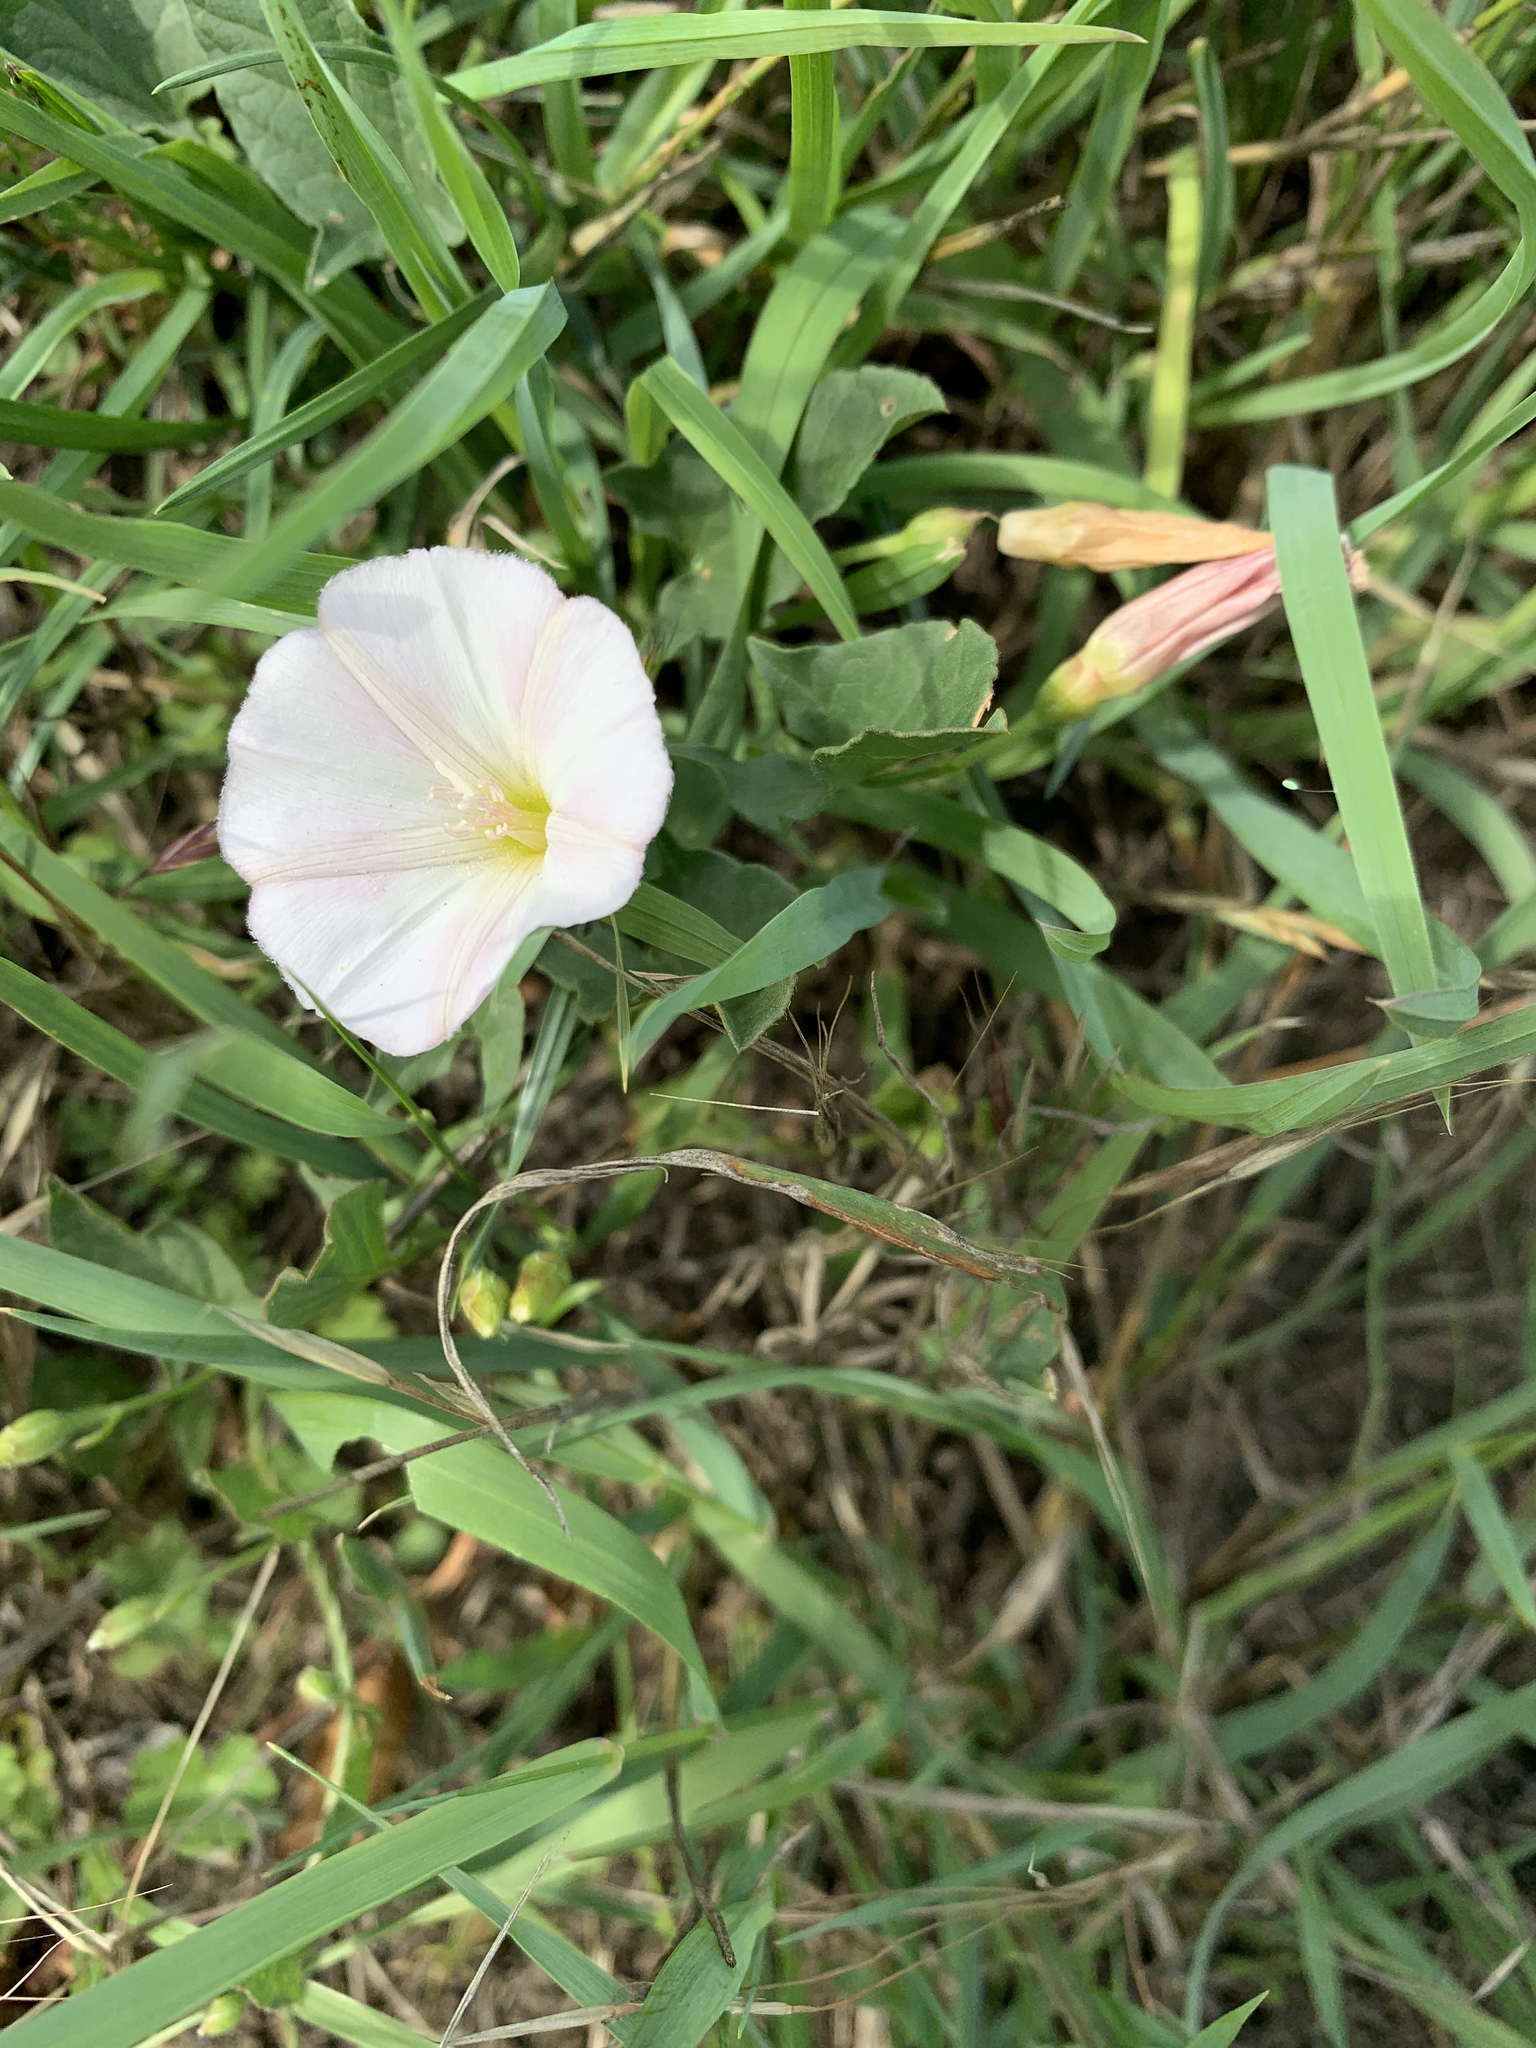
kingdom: Plantae
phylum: Tracheophyta
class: Magnoliopsida
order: Solanales
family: Convolvulaceae
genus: Convolvulus
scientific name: Convolvulus arvensis
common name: Field bindweed
